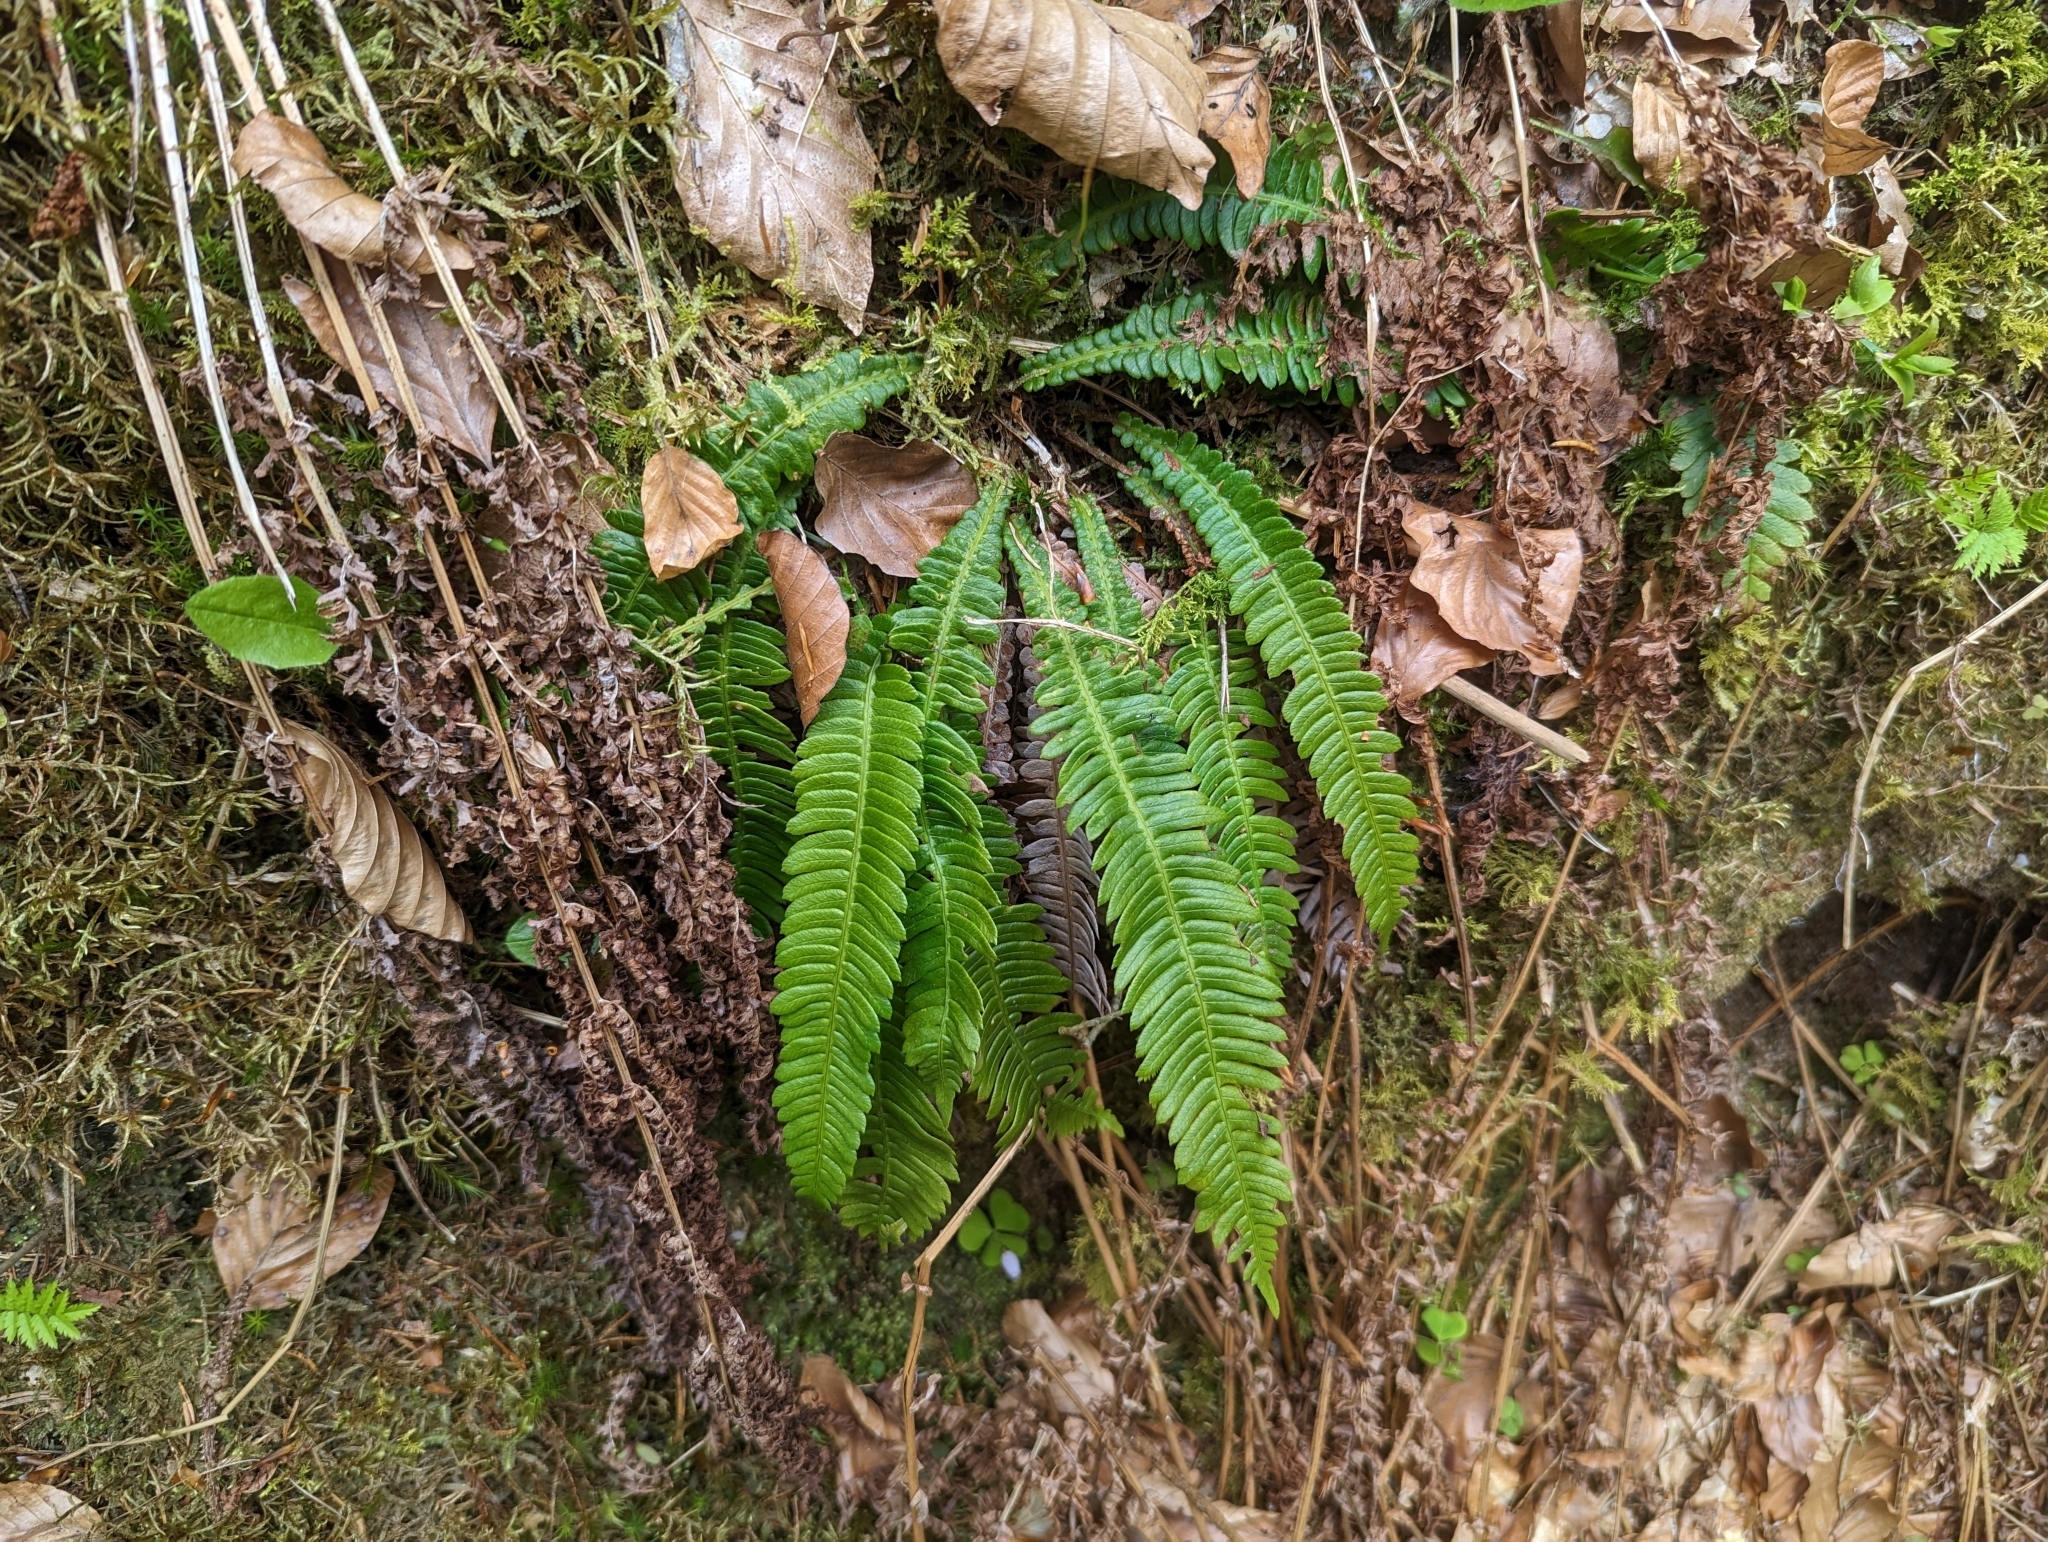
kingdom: Plantae
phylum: Tracheophyta
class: Polypodiopsida
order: Polypodiales
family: Blechnaceae
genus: Struthiopteris
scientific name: Struthiopteris spicant
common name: Deer fern
